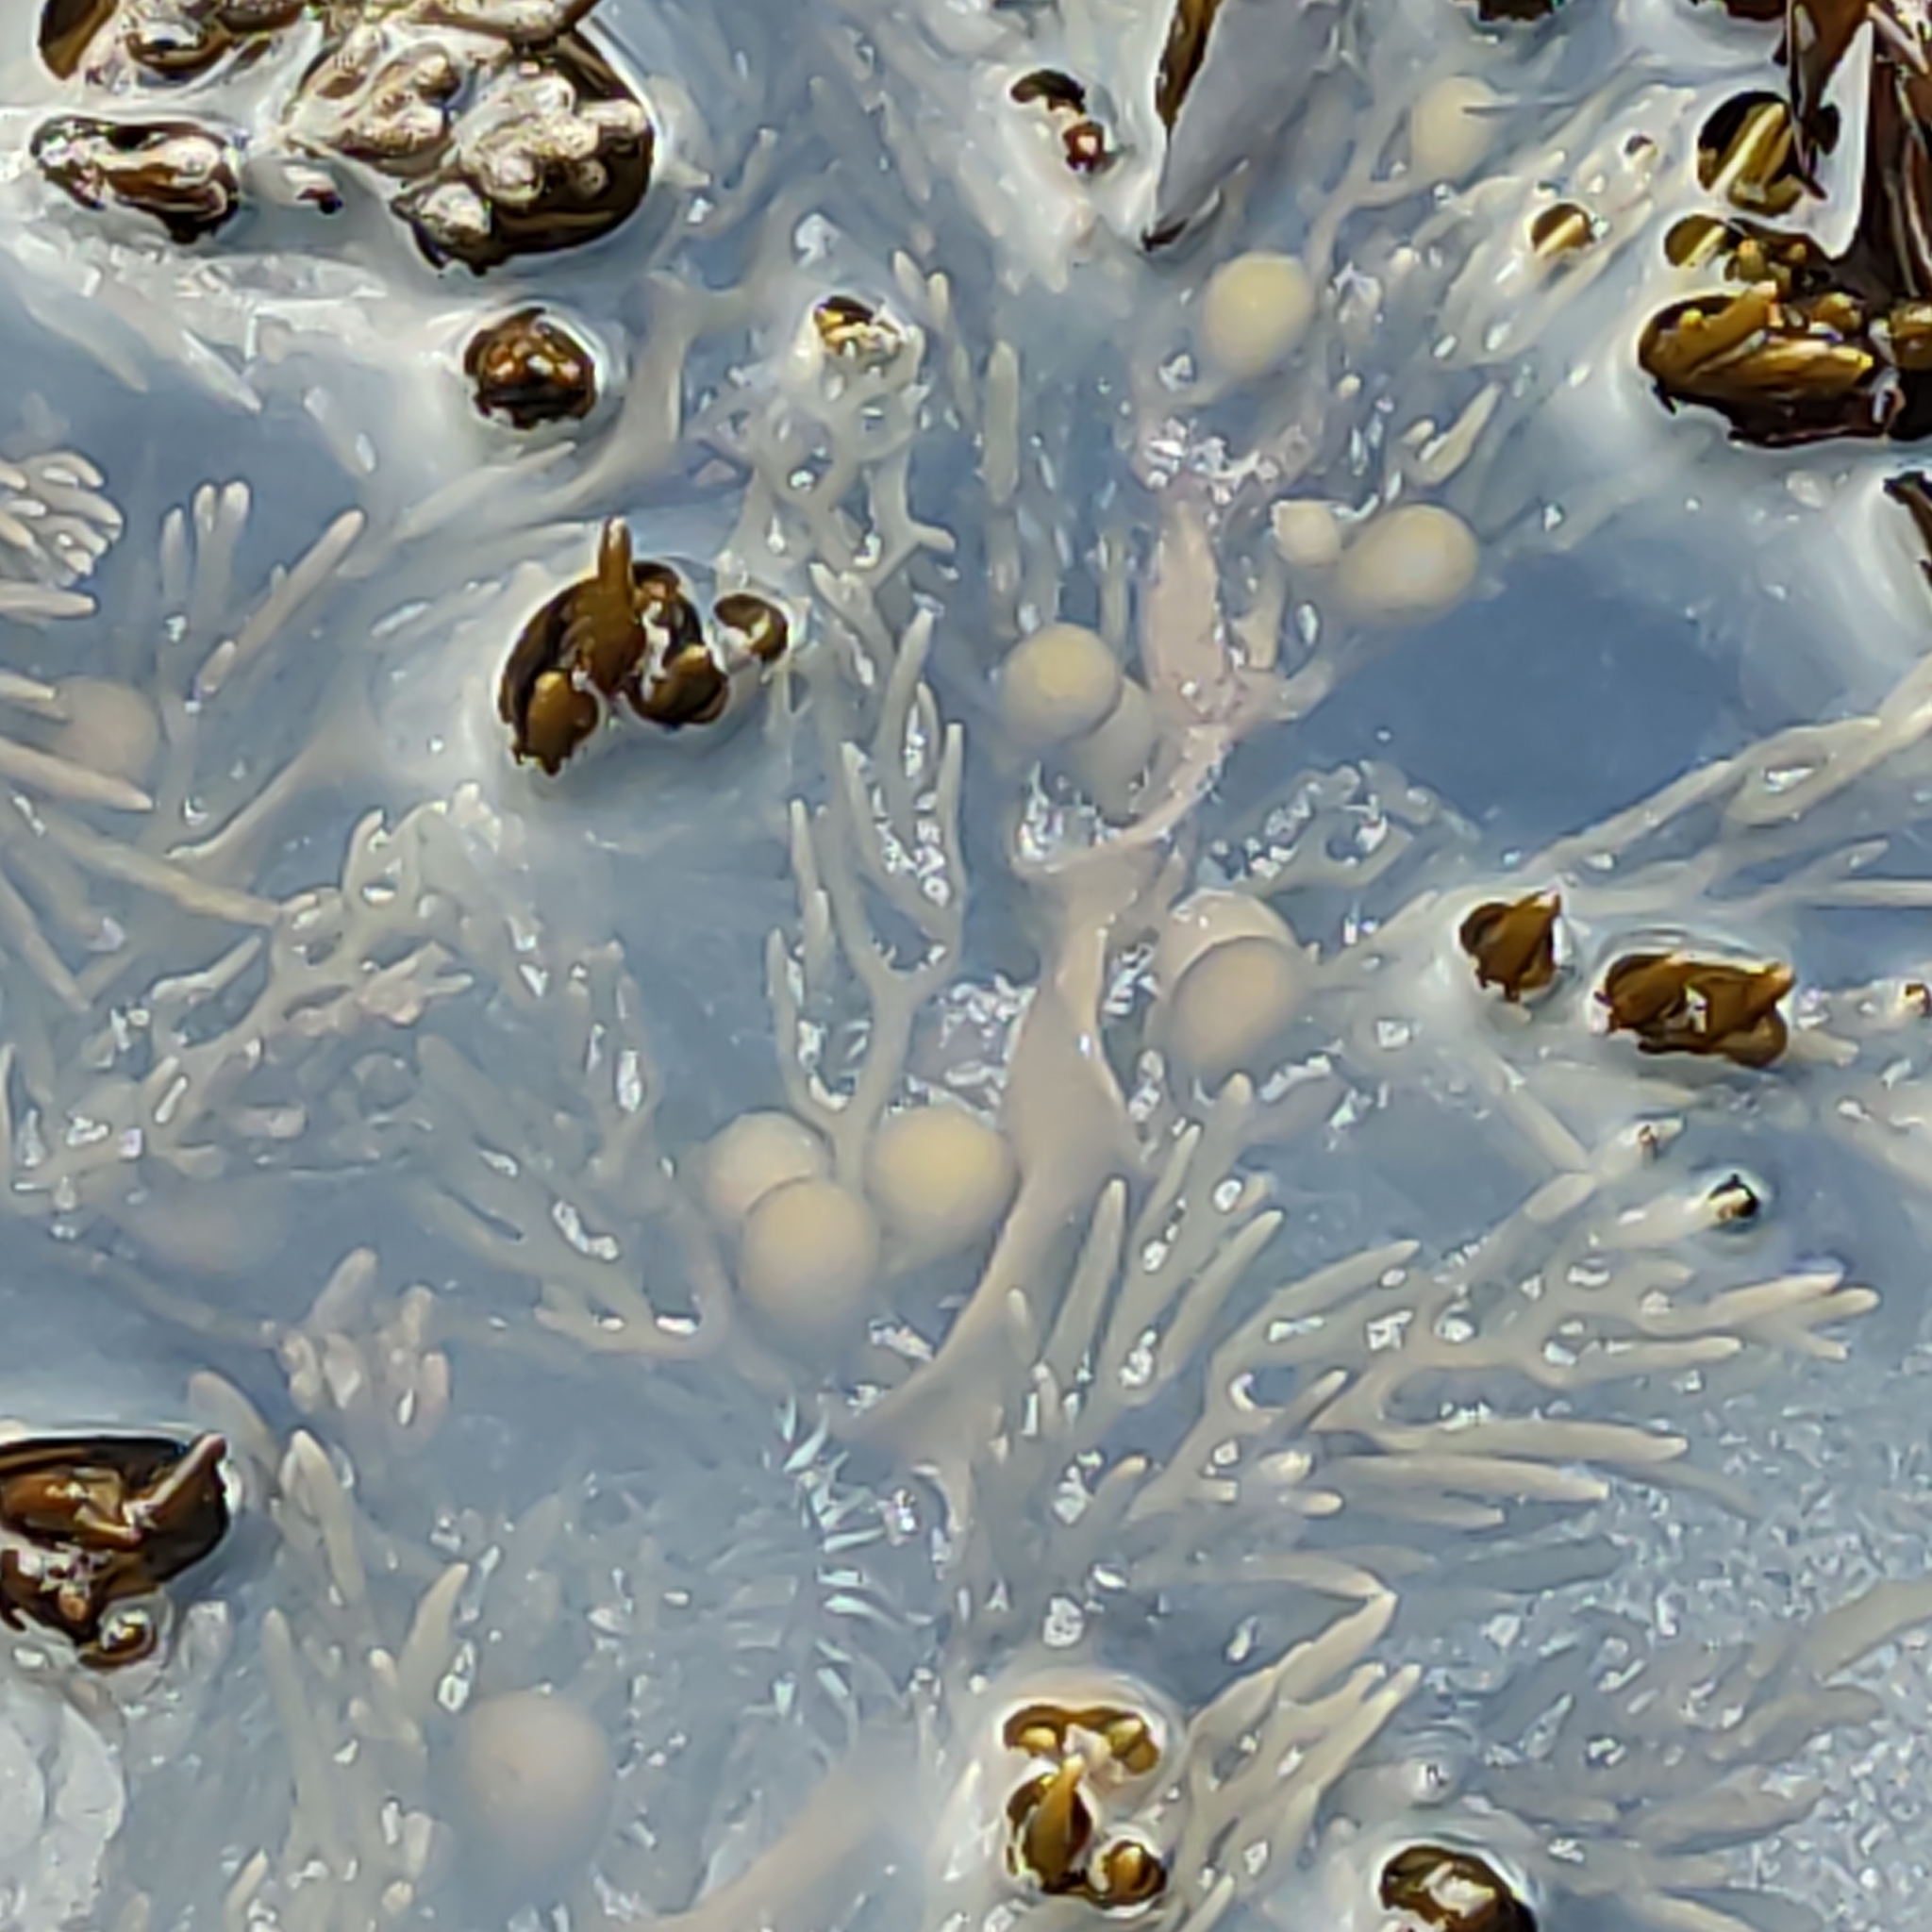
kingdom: Chromista
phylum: Ochrophyta
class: Phaeophyceae
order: Fucales
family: Sargassaceae
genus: Cystophora
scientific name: Cystophora scalaris
